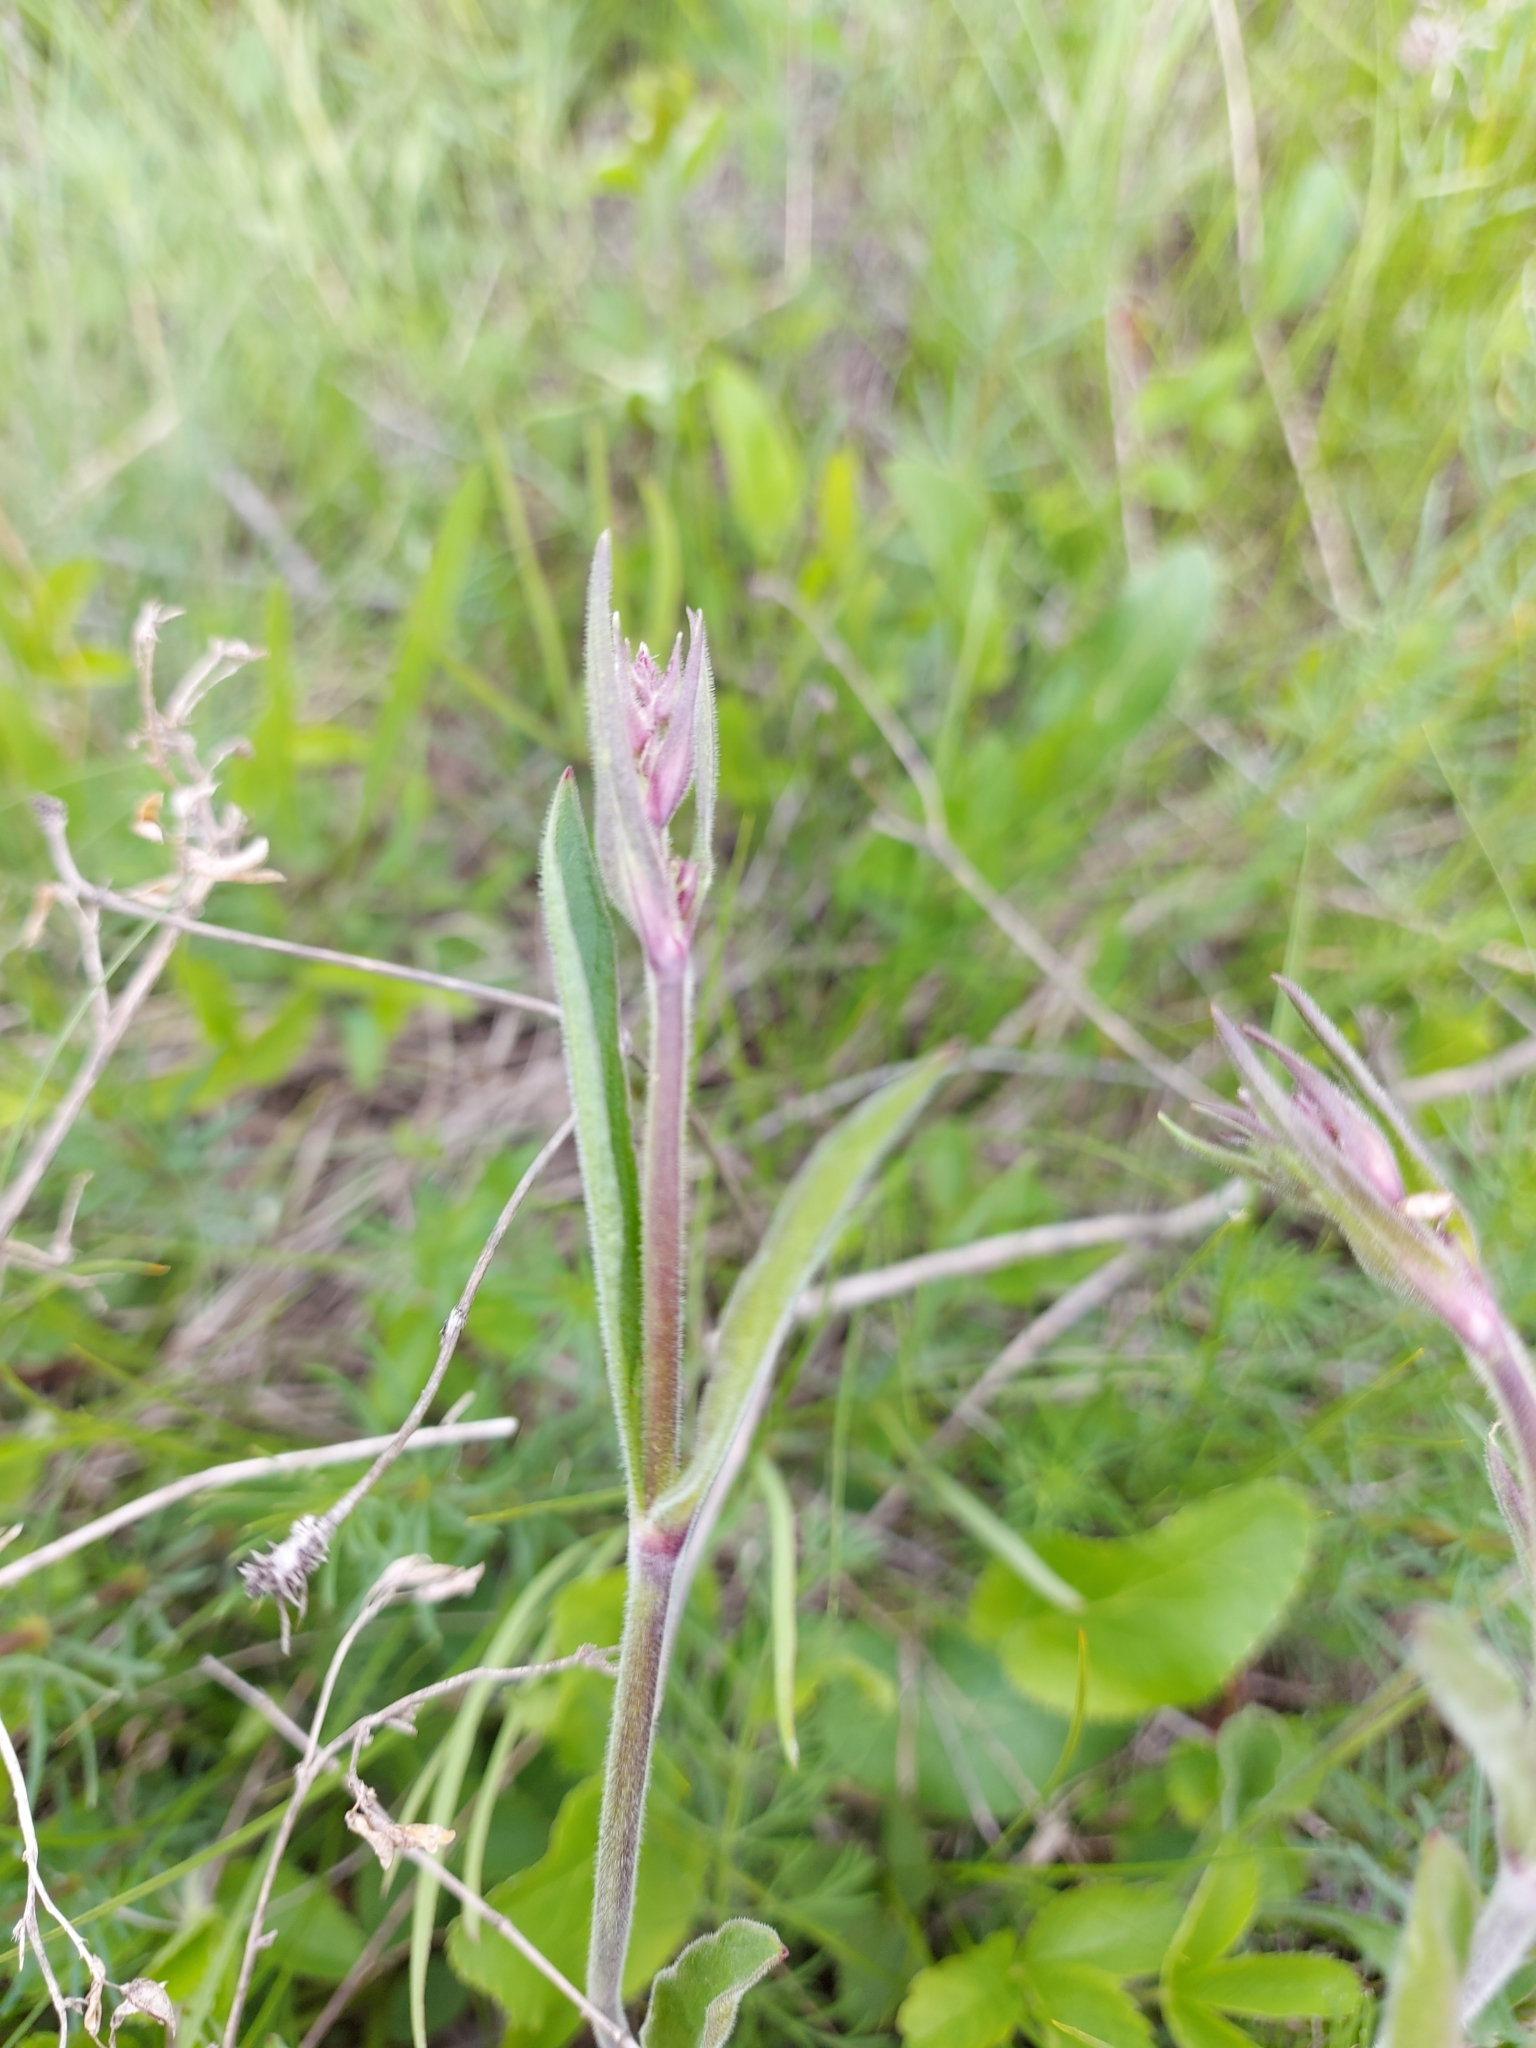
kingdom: Plantae
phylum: Tracheophyta
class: Magnoliopsida
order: Caryophyllales
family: Caryophyllaceae
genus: Silene
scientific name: Silene nutans
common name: Nottingham catchfly
